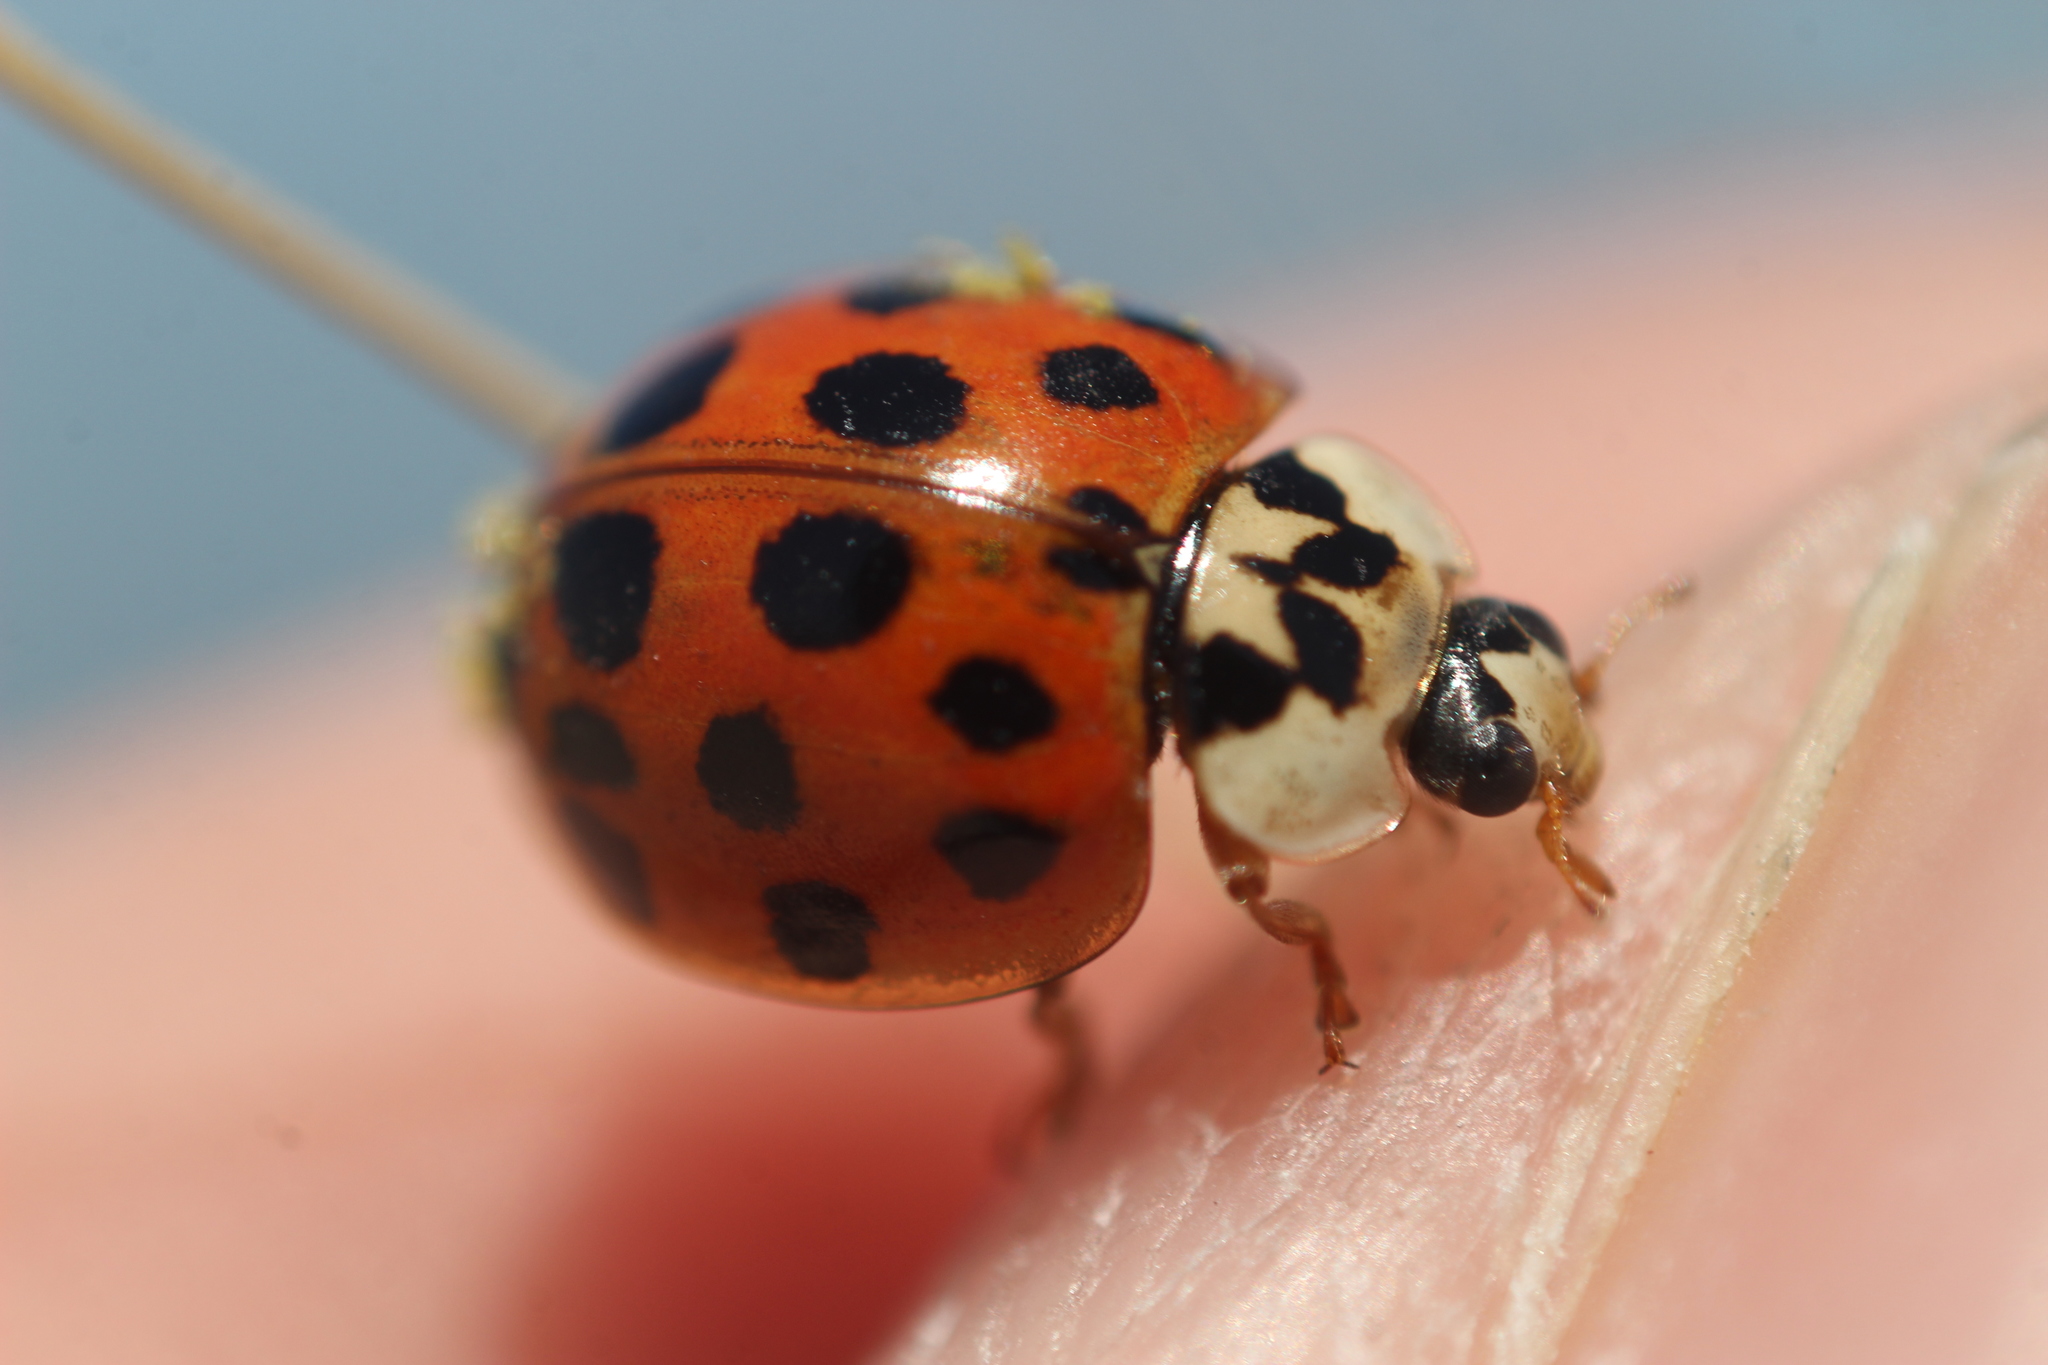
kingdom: Animalia
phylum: Arthropoda
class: Insecta
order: Coleoptera
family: Coccinellidae
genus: Harmonia
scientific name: Harmonia axyridis
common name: Harlequin ladybird
